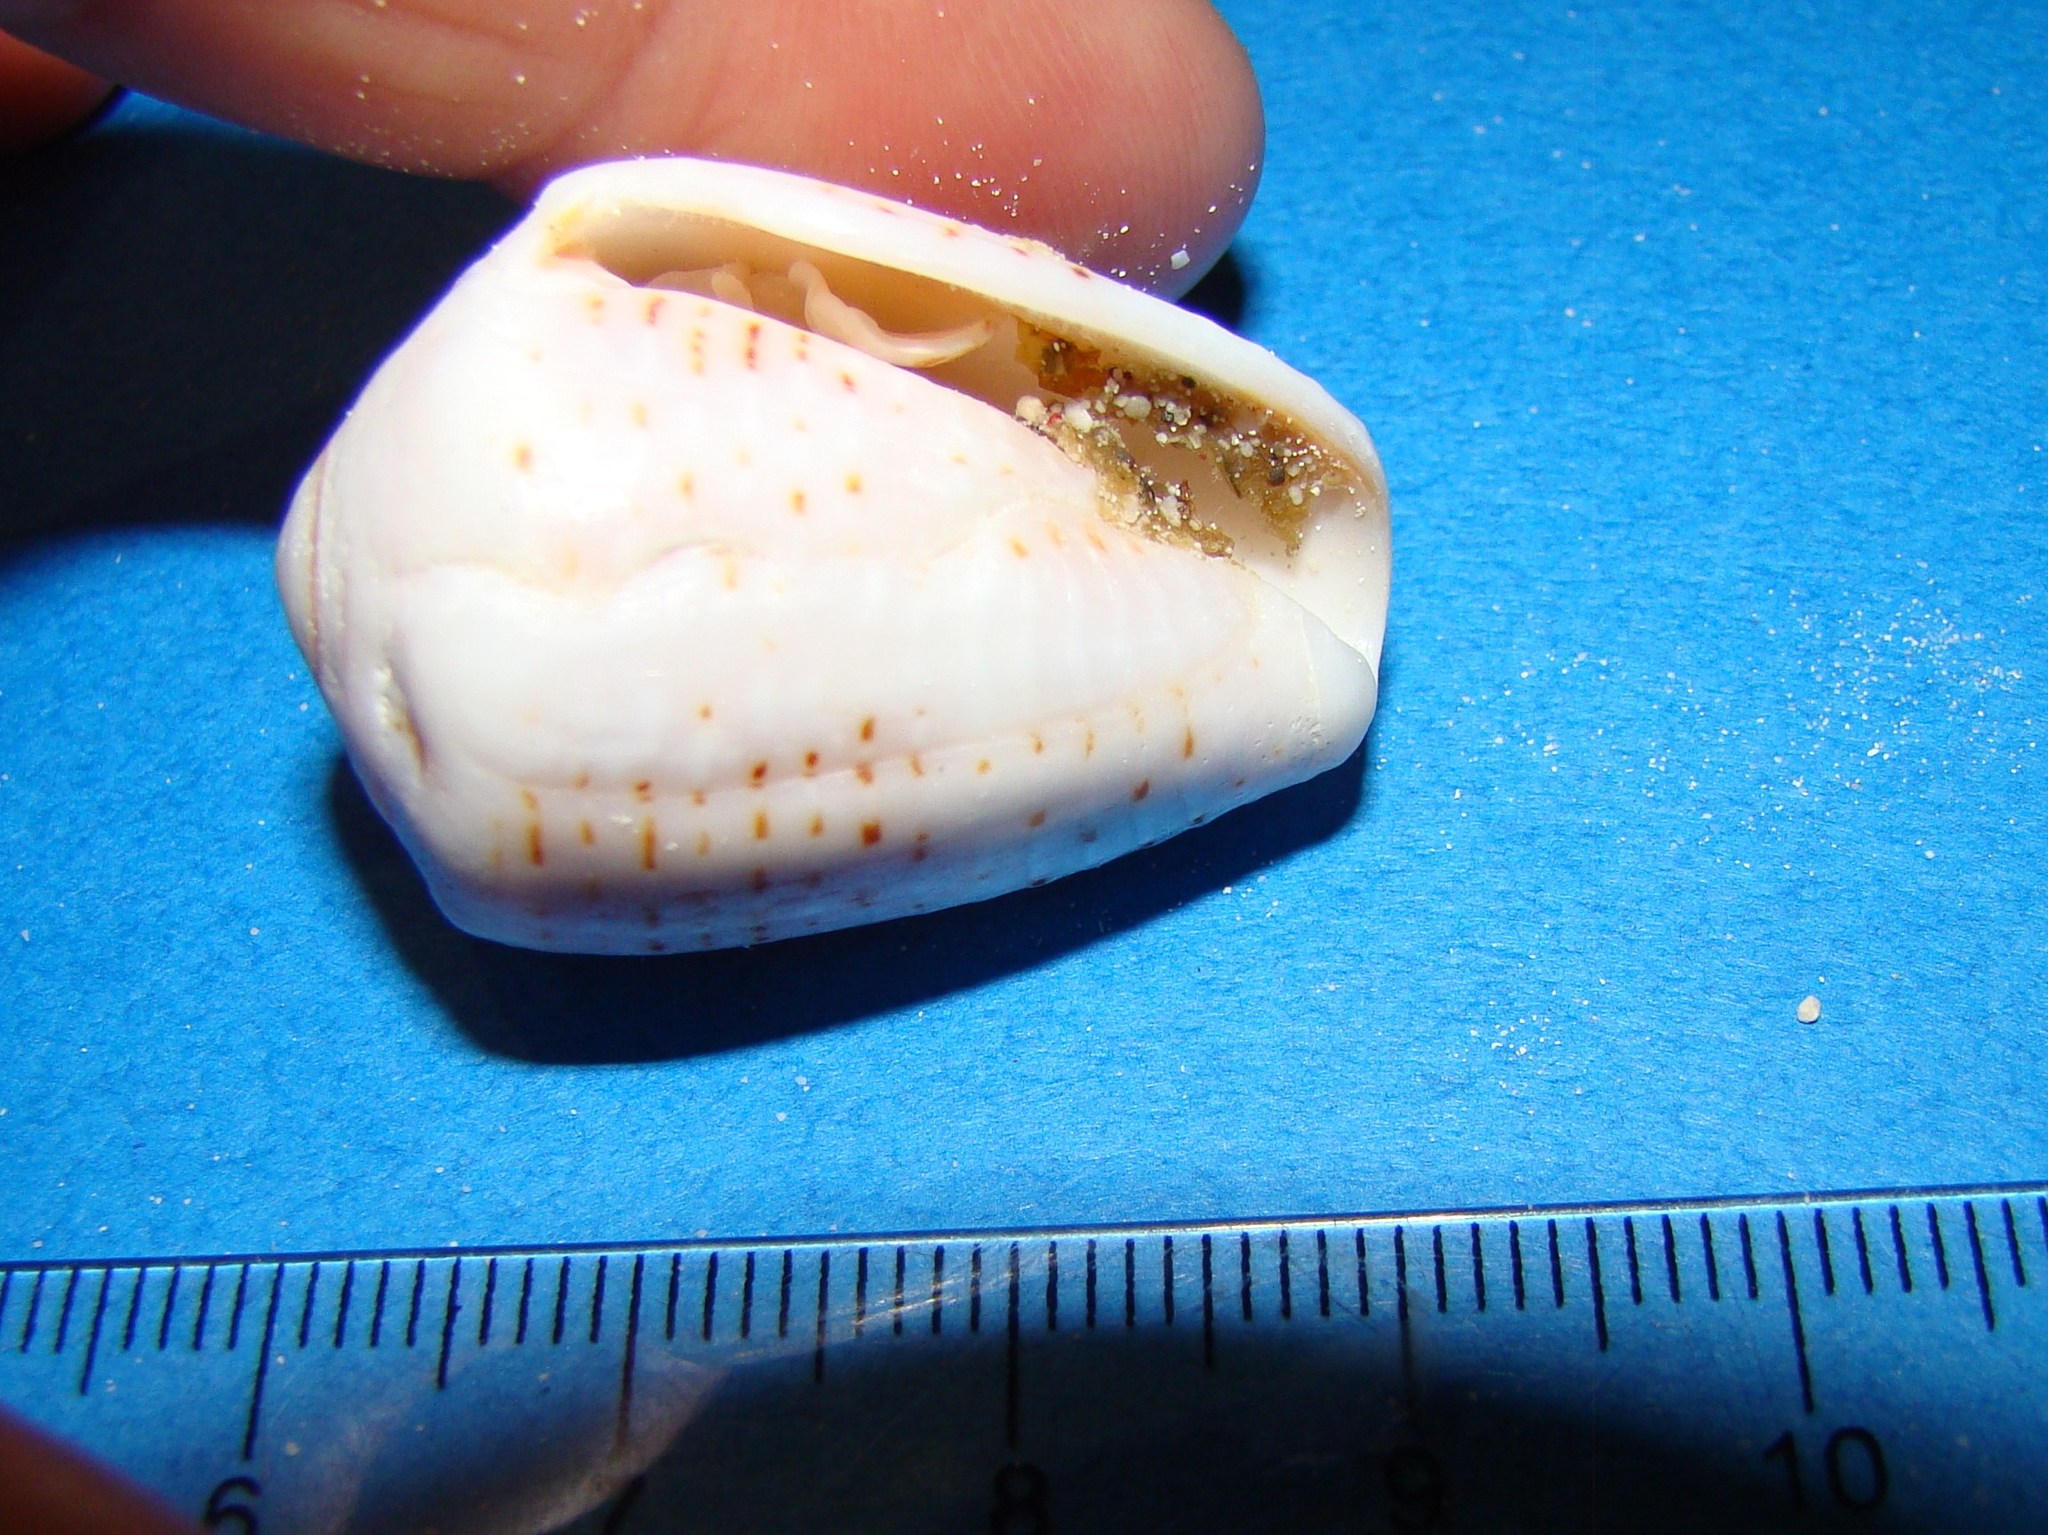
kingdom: Animalia
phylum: Mollusca
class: Gastropoda
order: Neogastropoda
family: Conidae
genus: Conus
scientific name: Conus coronatus
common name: Coronated cone
